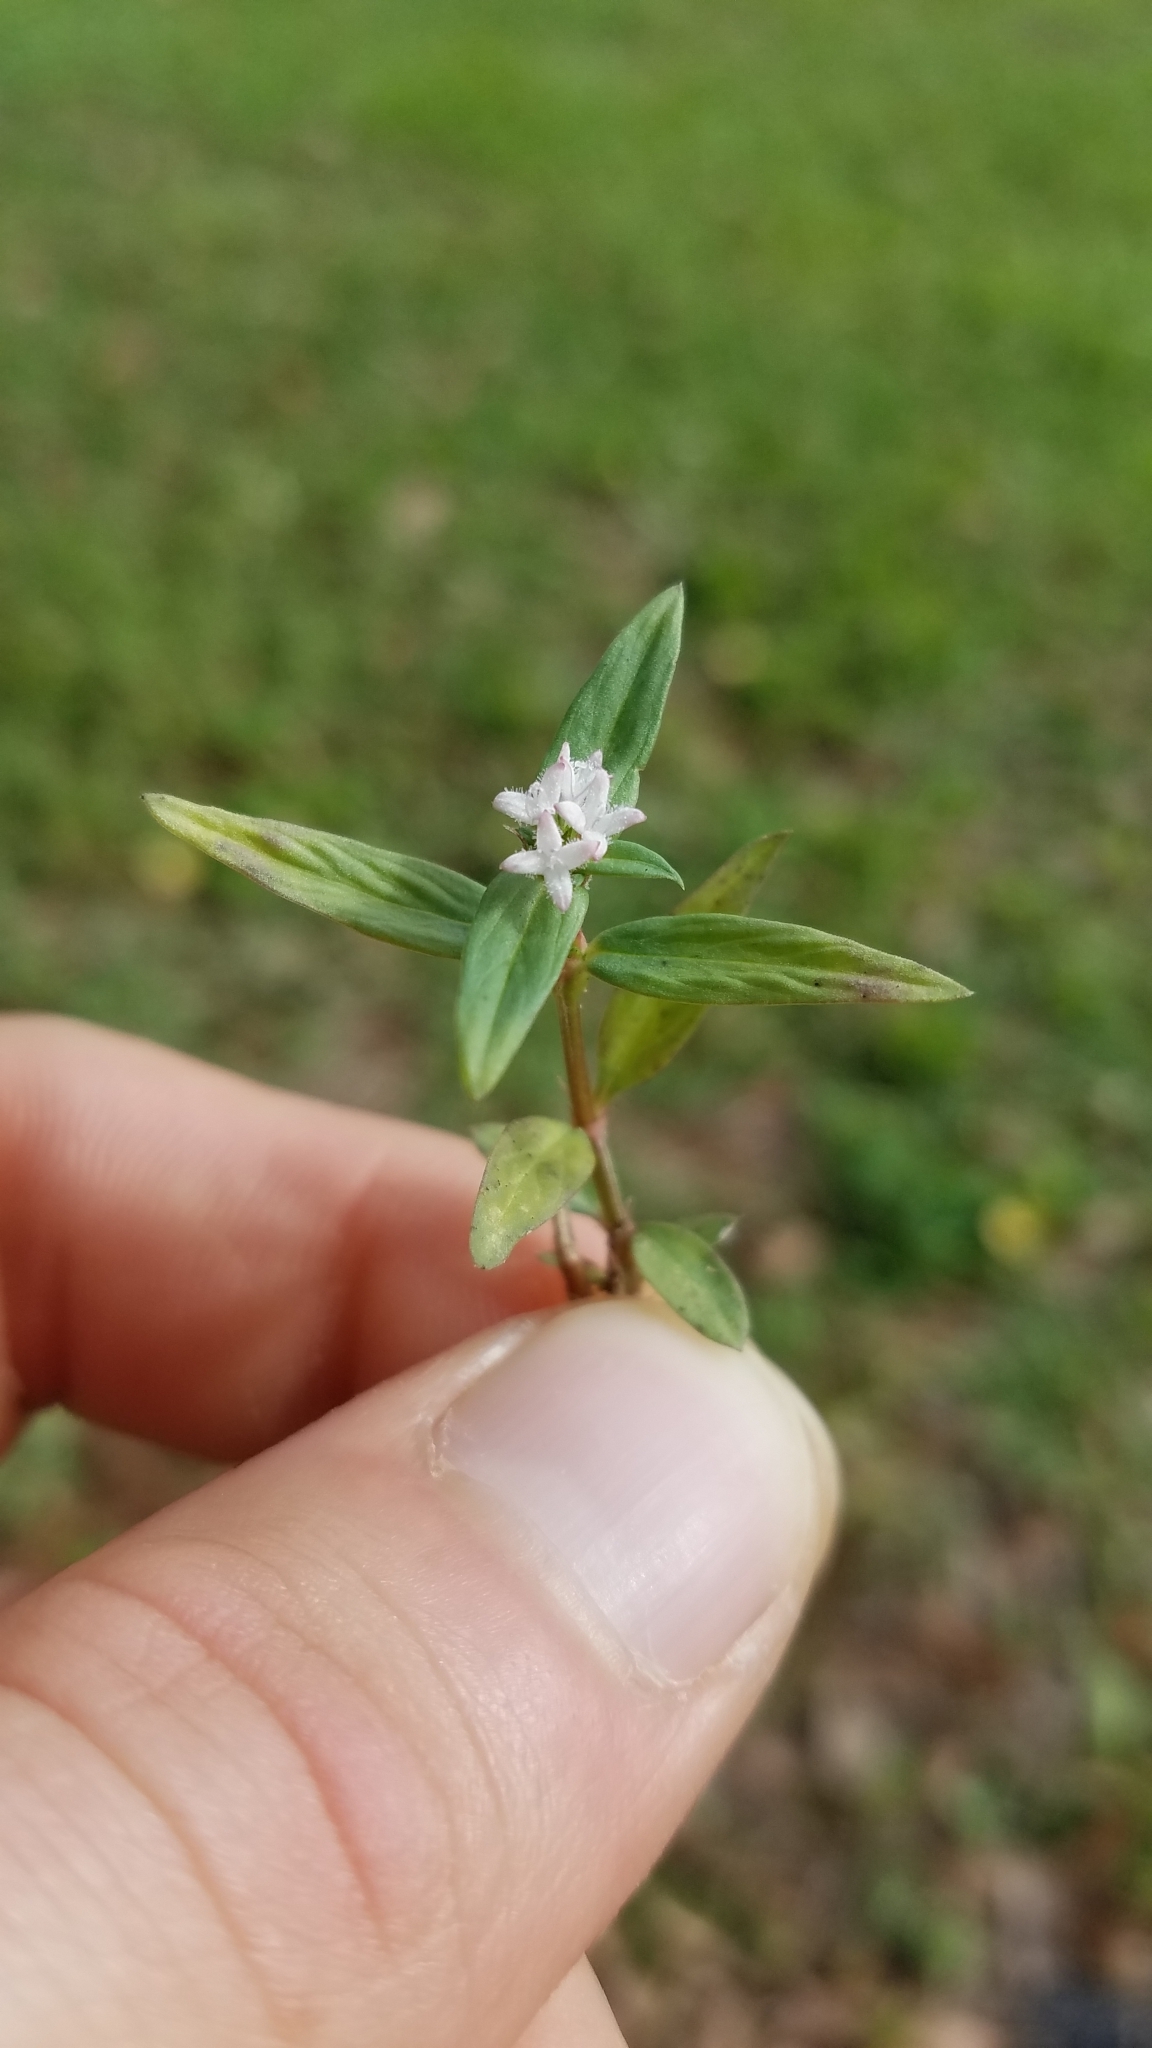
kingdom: Plantae
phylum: Tracheophyta
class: Magnoliopsida
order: Gentianales
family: Rubiaceae
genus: Diodia
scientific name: Diodia virginiana
